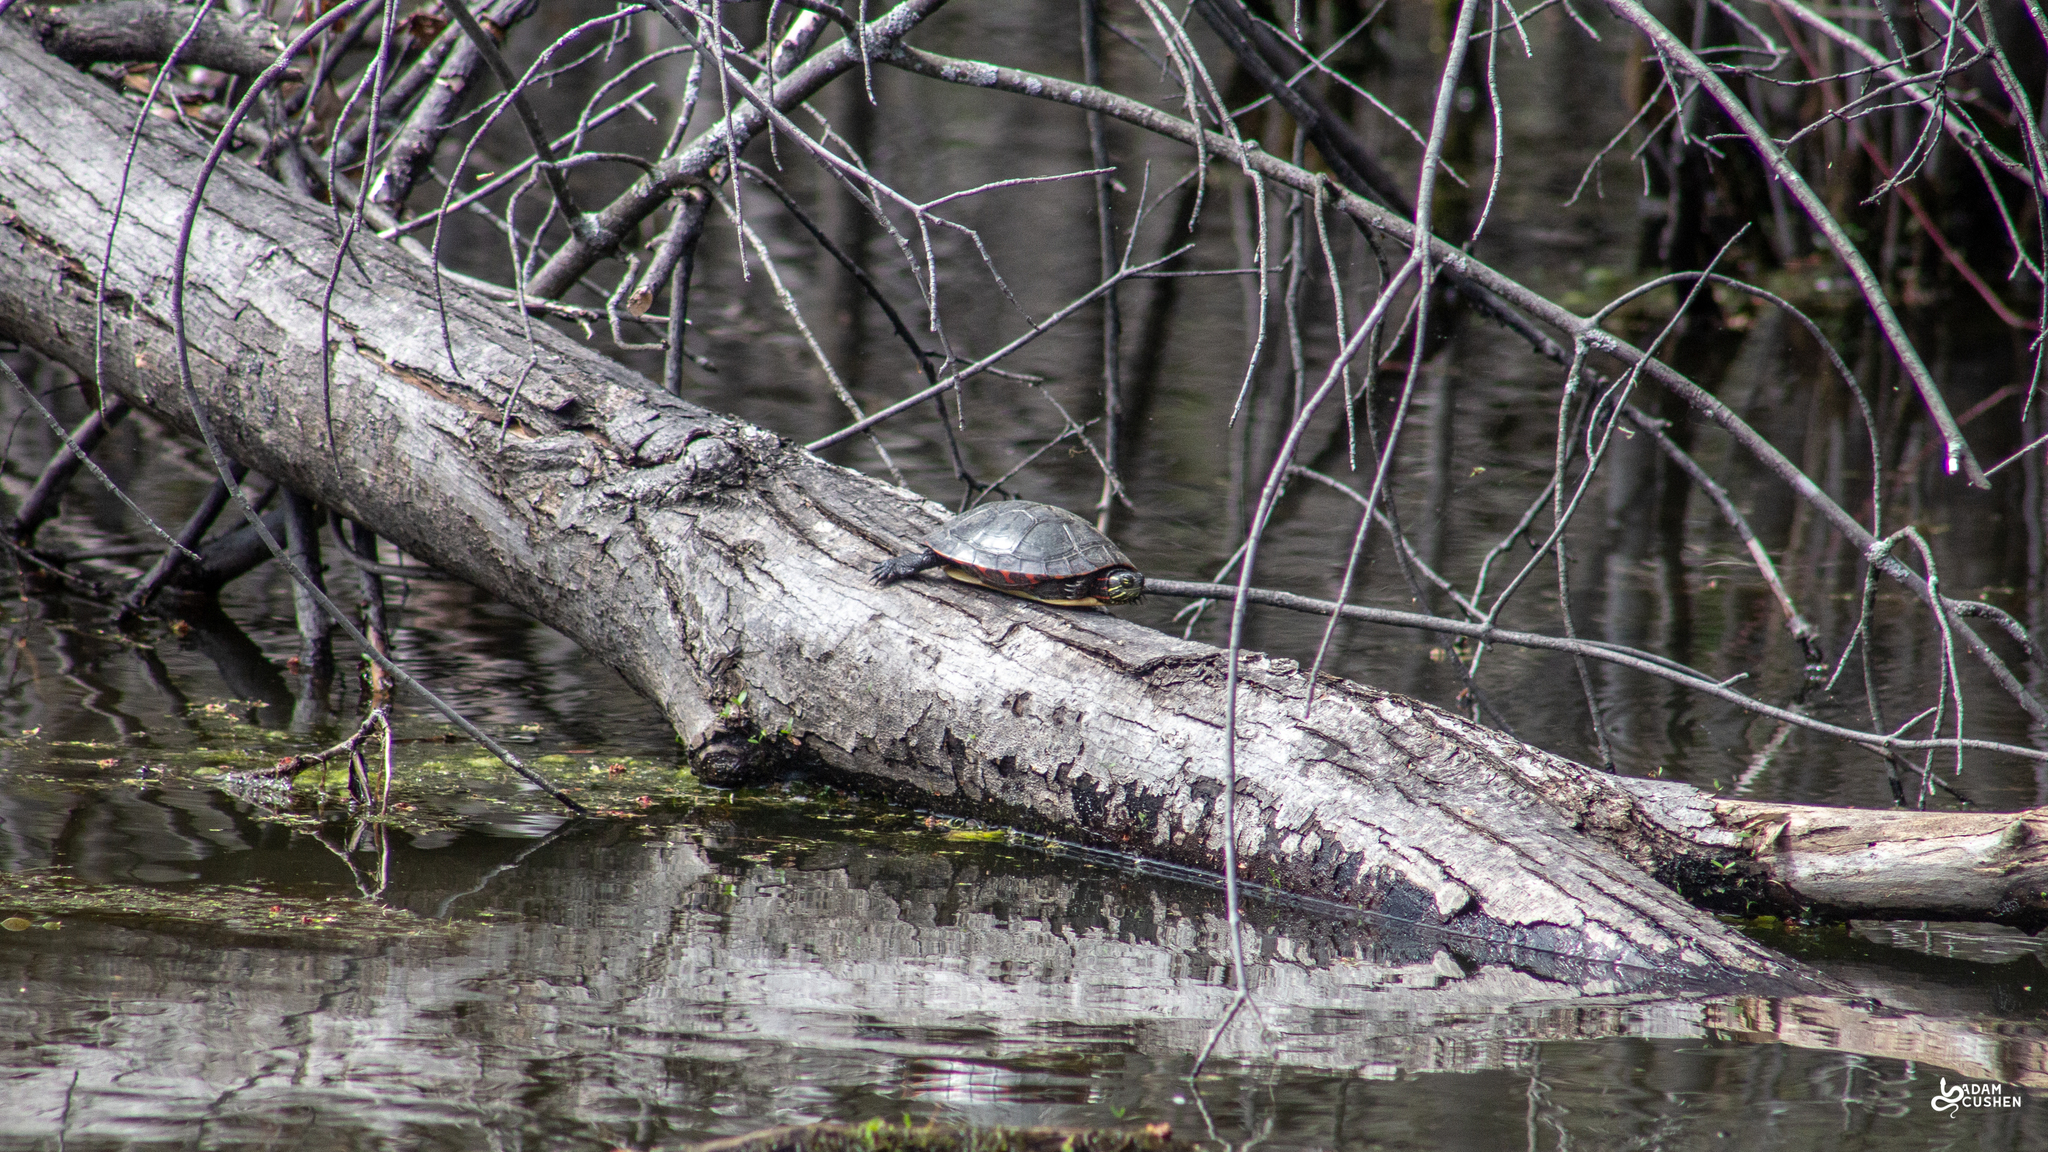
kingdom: Animalia
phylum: Chordata
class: Testudines
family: Emydidae
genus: Chrysemys
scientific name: Chrysemys picta
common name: Painted turtle
